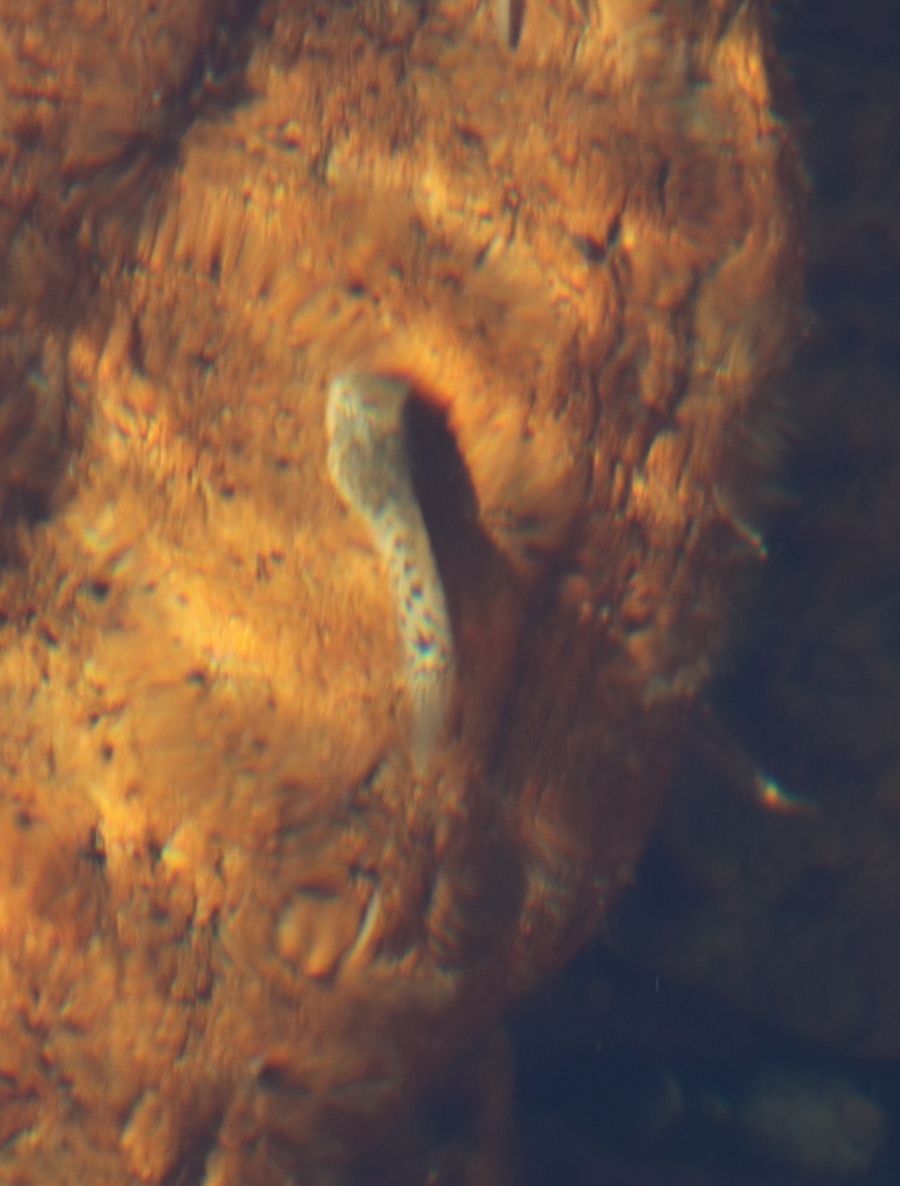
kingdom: Animalia
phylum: Chordata
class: Amphibia
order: Anura
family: Pyxicephalidae
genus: Amietia
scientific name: Amietia fuscigula
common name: Cape rana
